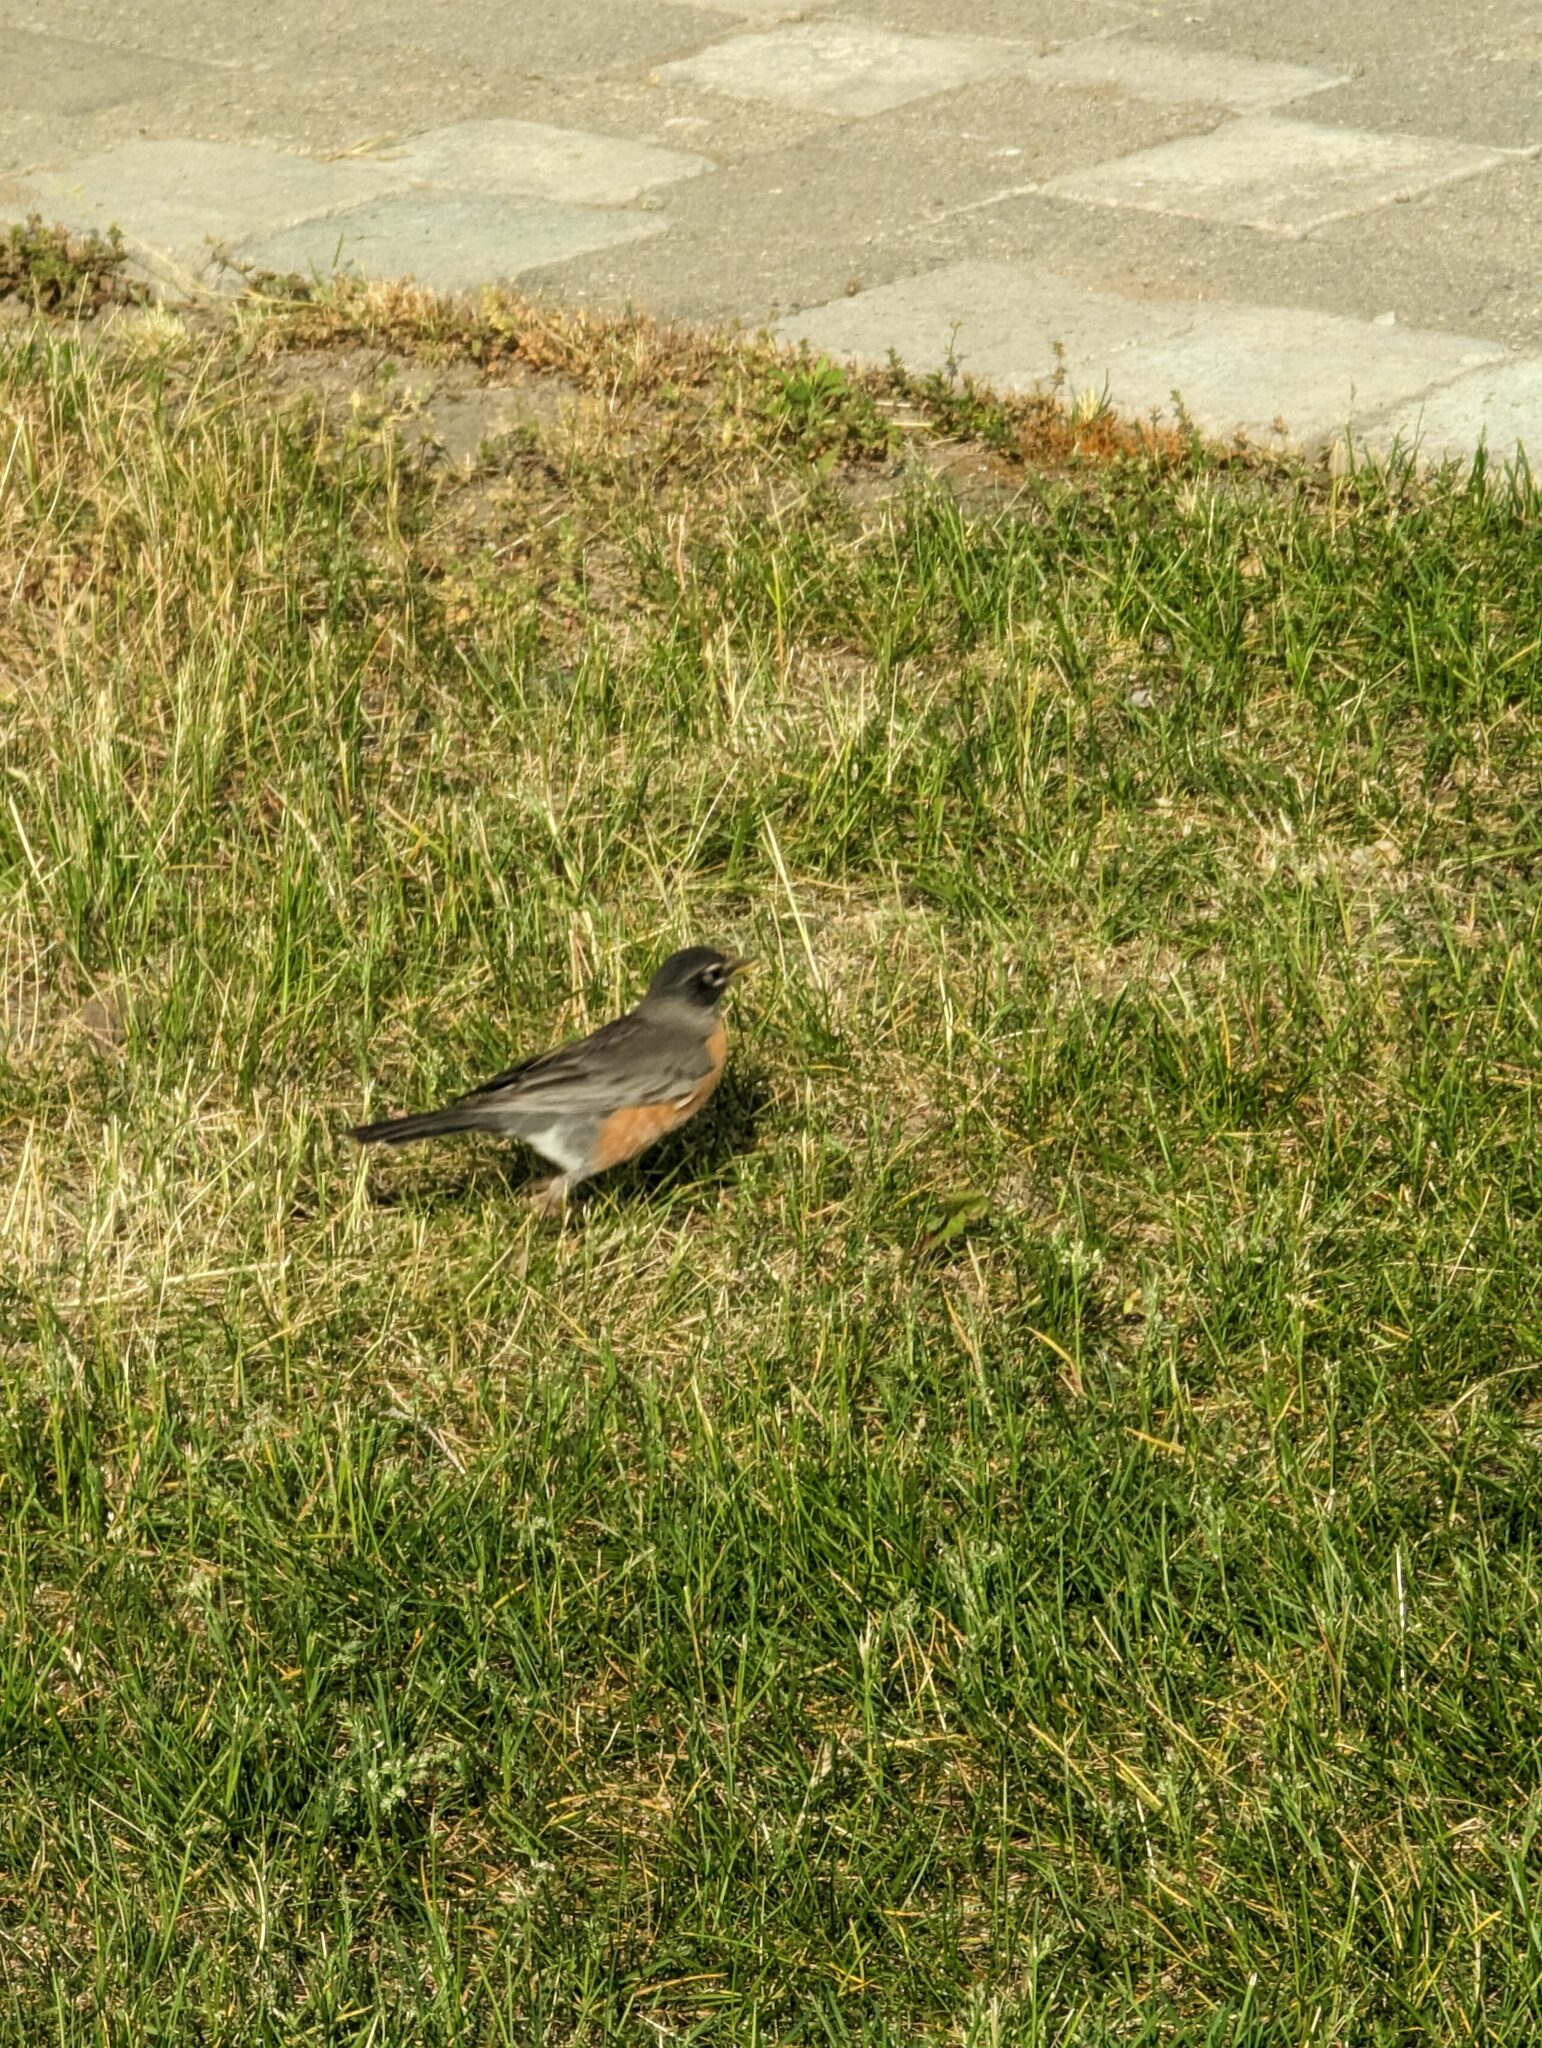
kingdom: Animalia
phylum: Chordata
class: Aves
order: Passeriformes
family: Turdidae
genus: Turdus
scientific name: Turdus migratorius
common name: American robin
